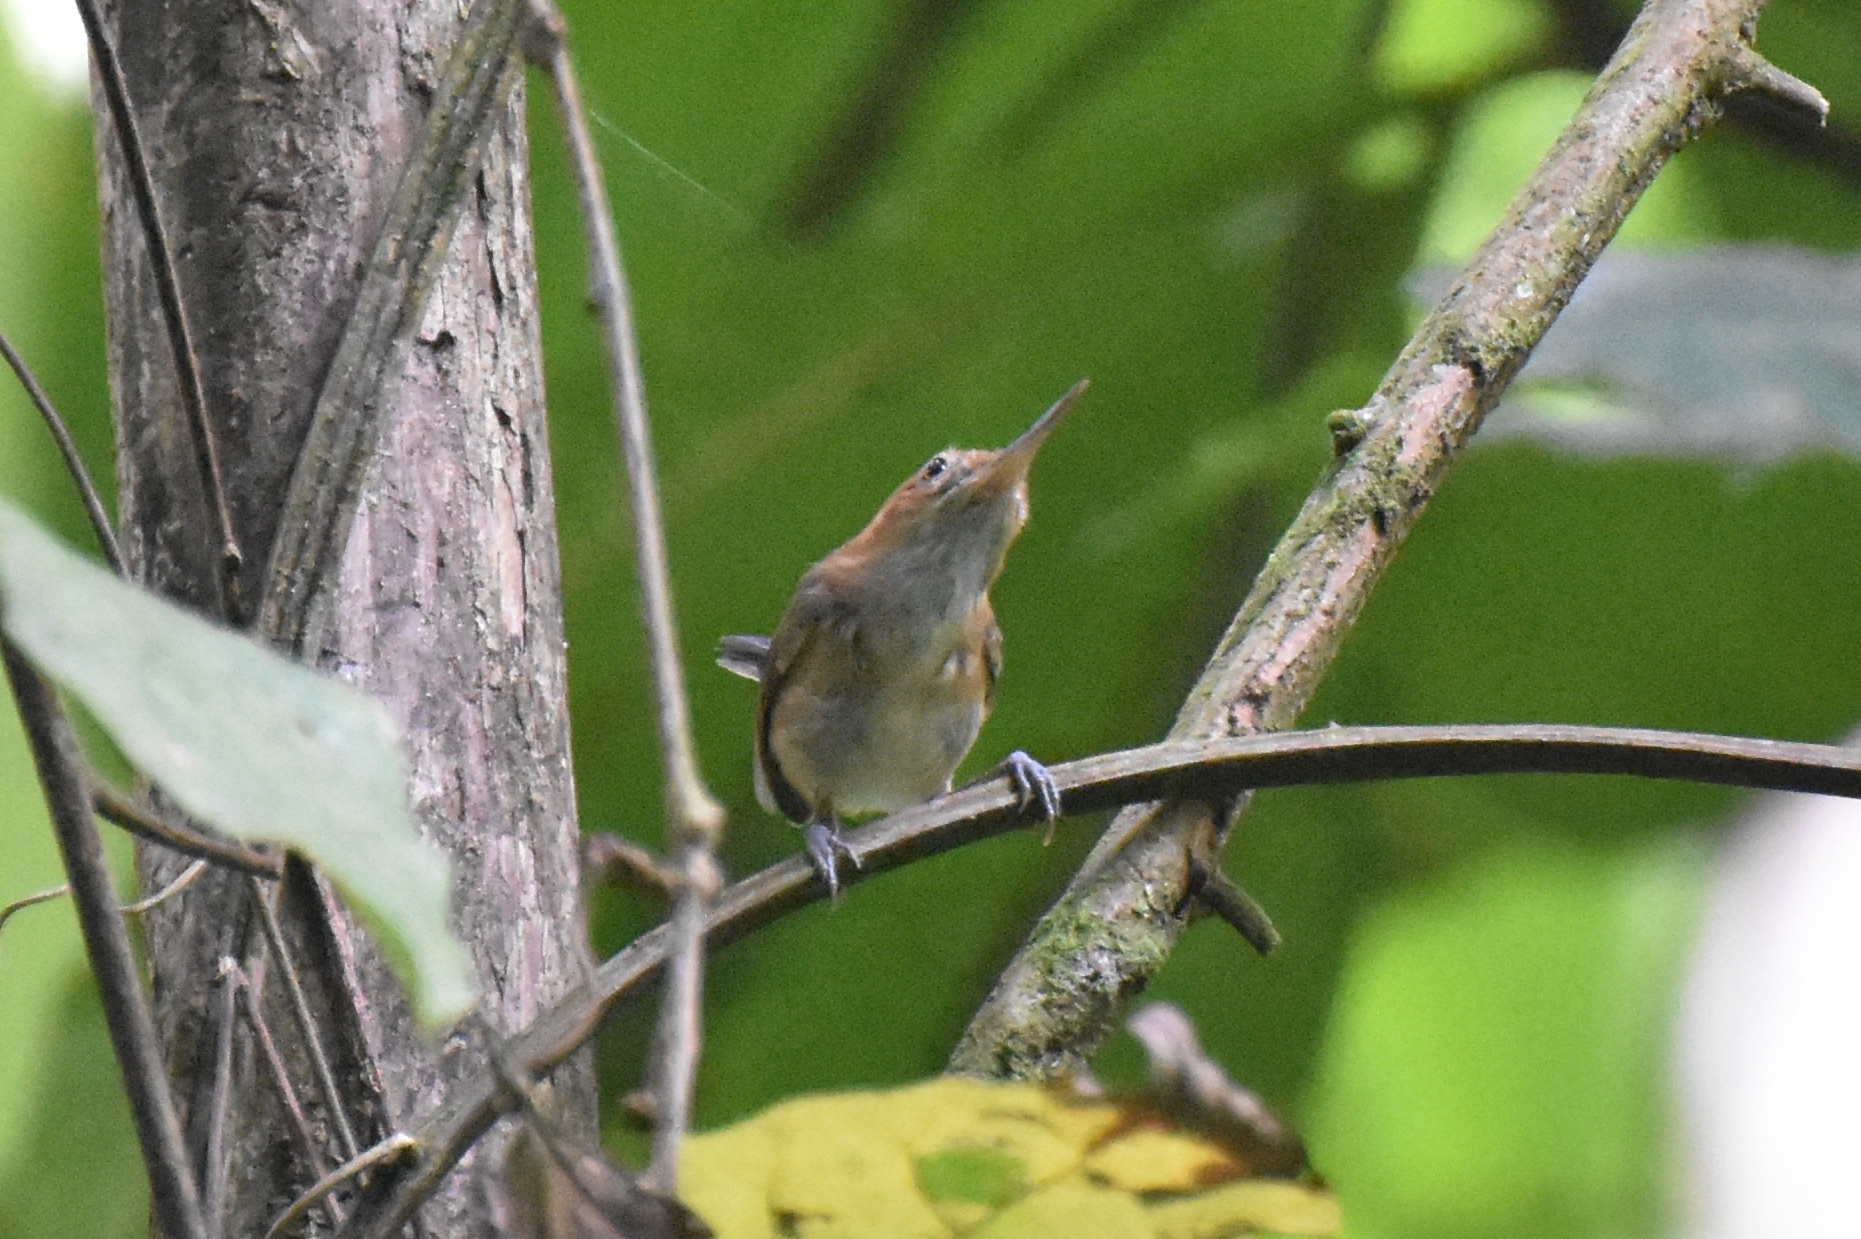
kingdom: Animalia
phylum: Chordata
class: Aves
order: Passeriformes
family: Polioptilidae
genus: Ramphocaenus
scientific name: Ramphocaenus melanurus
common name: Long-billed gnatwren
